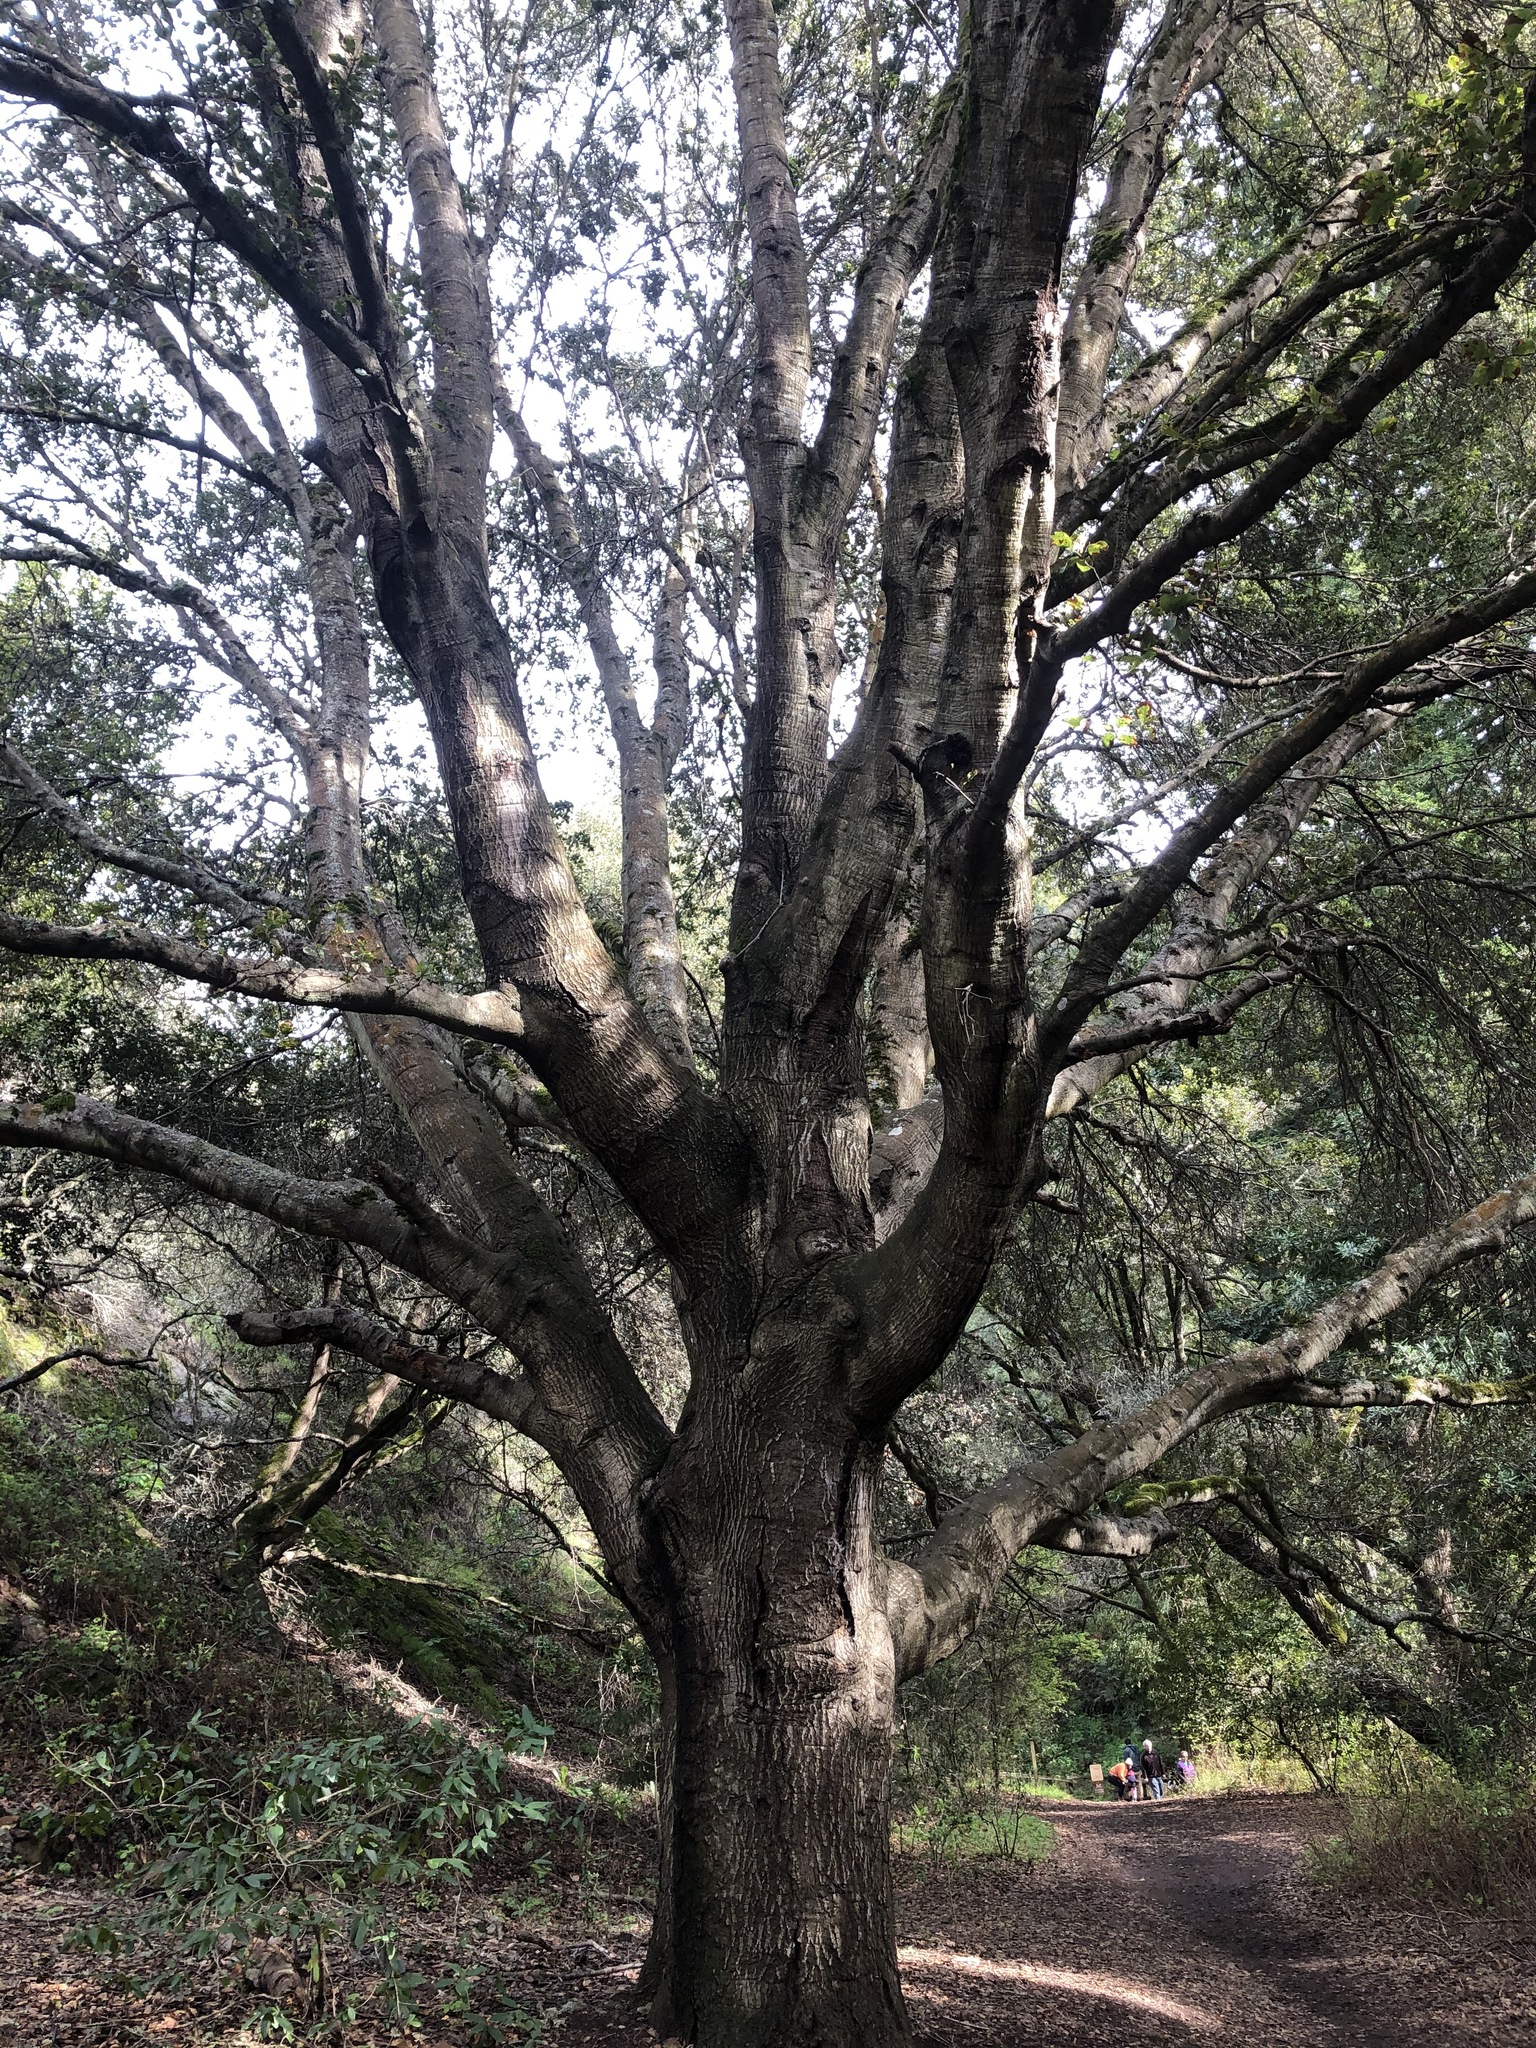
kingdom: Plantae
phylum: Tracheophyta
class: Magnoliopsida
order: Fagales
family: Fagaceae
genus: Quercus
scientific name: Quercus agrifolia
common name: California live oak
